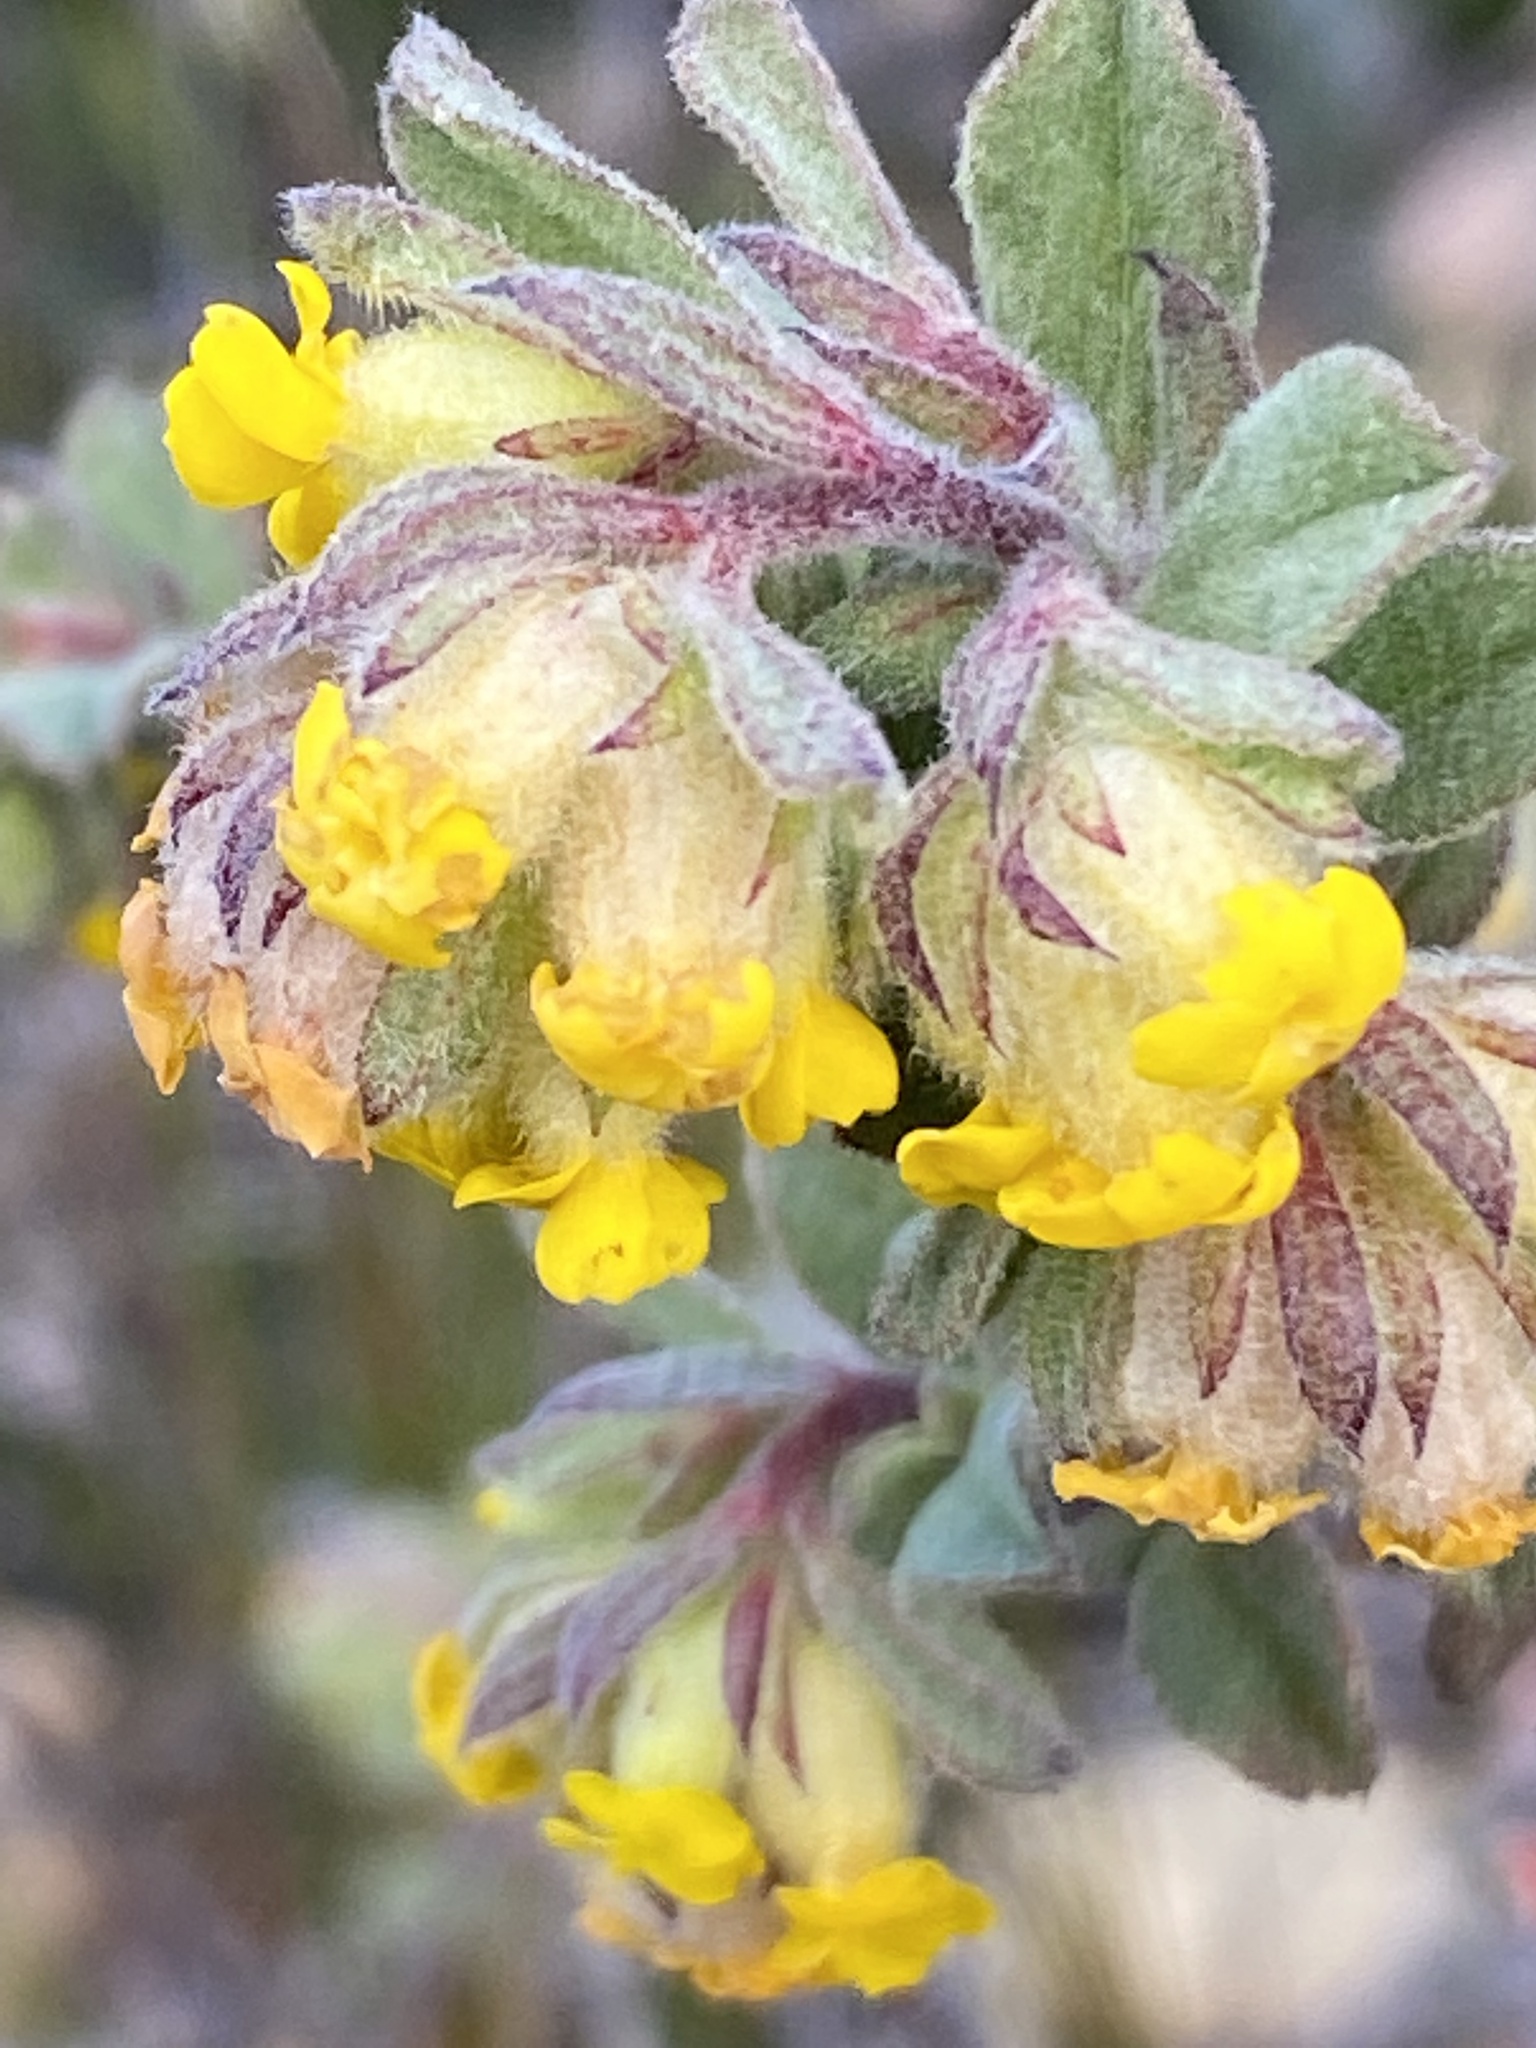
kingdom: Plantae
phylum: Tracheophyta
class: Magnoliopsida
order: Malvales
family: Malvaceae
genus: Hermannia
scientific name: Hermannia salviifolia
